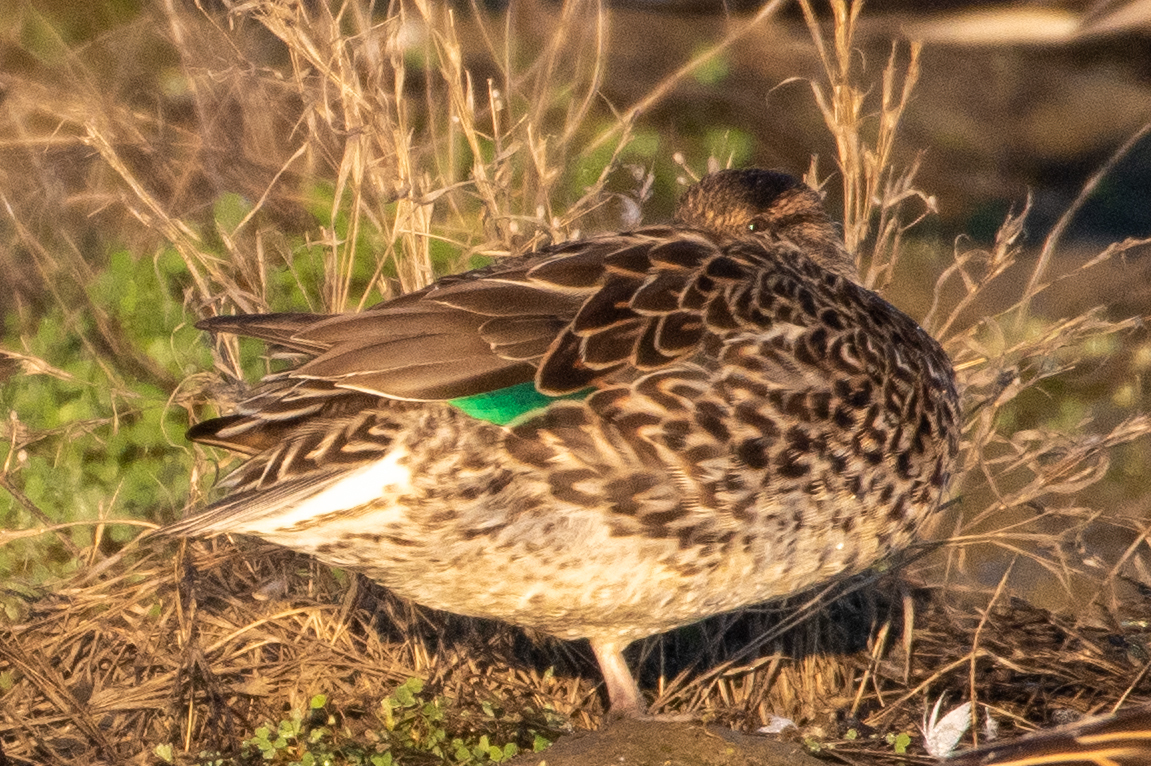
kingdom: Animalia
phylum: Chordata
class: Aves
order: Anseriformes
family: Anatidae
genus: Anas
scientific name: Anas crecca
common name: Eurasian teal
